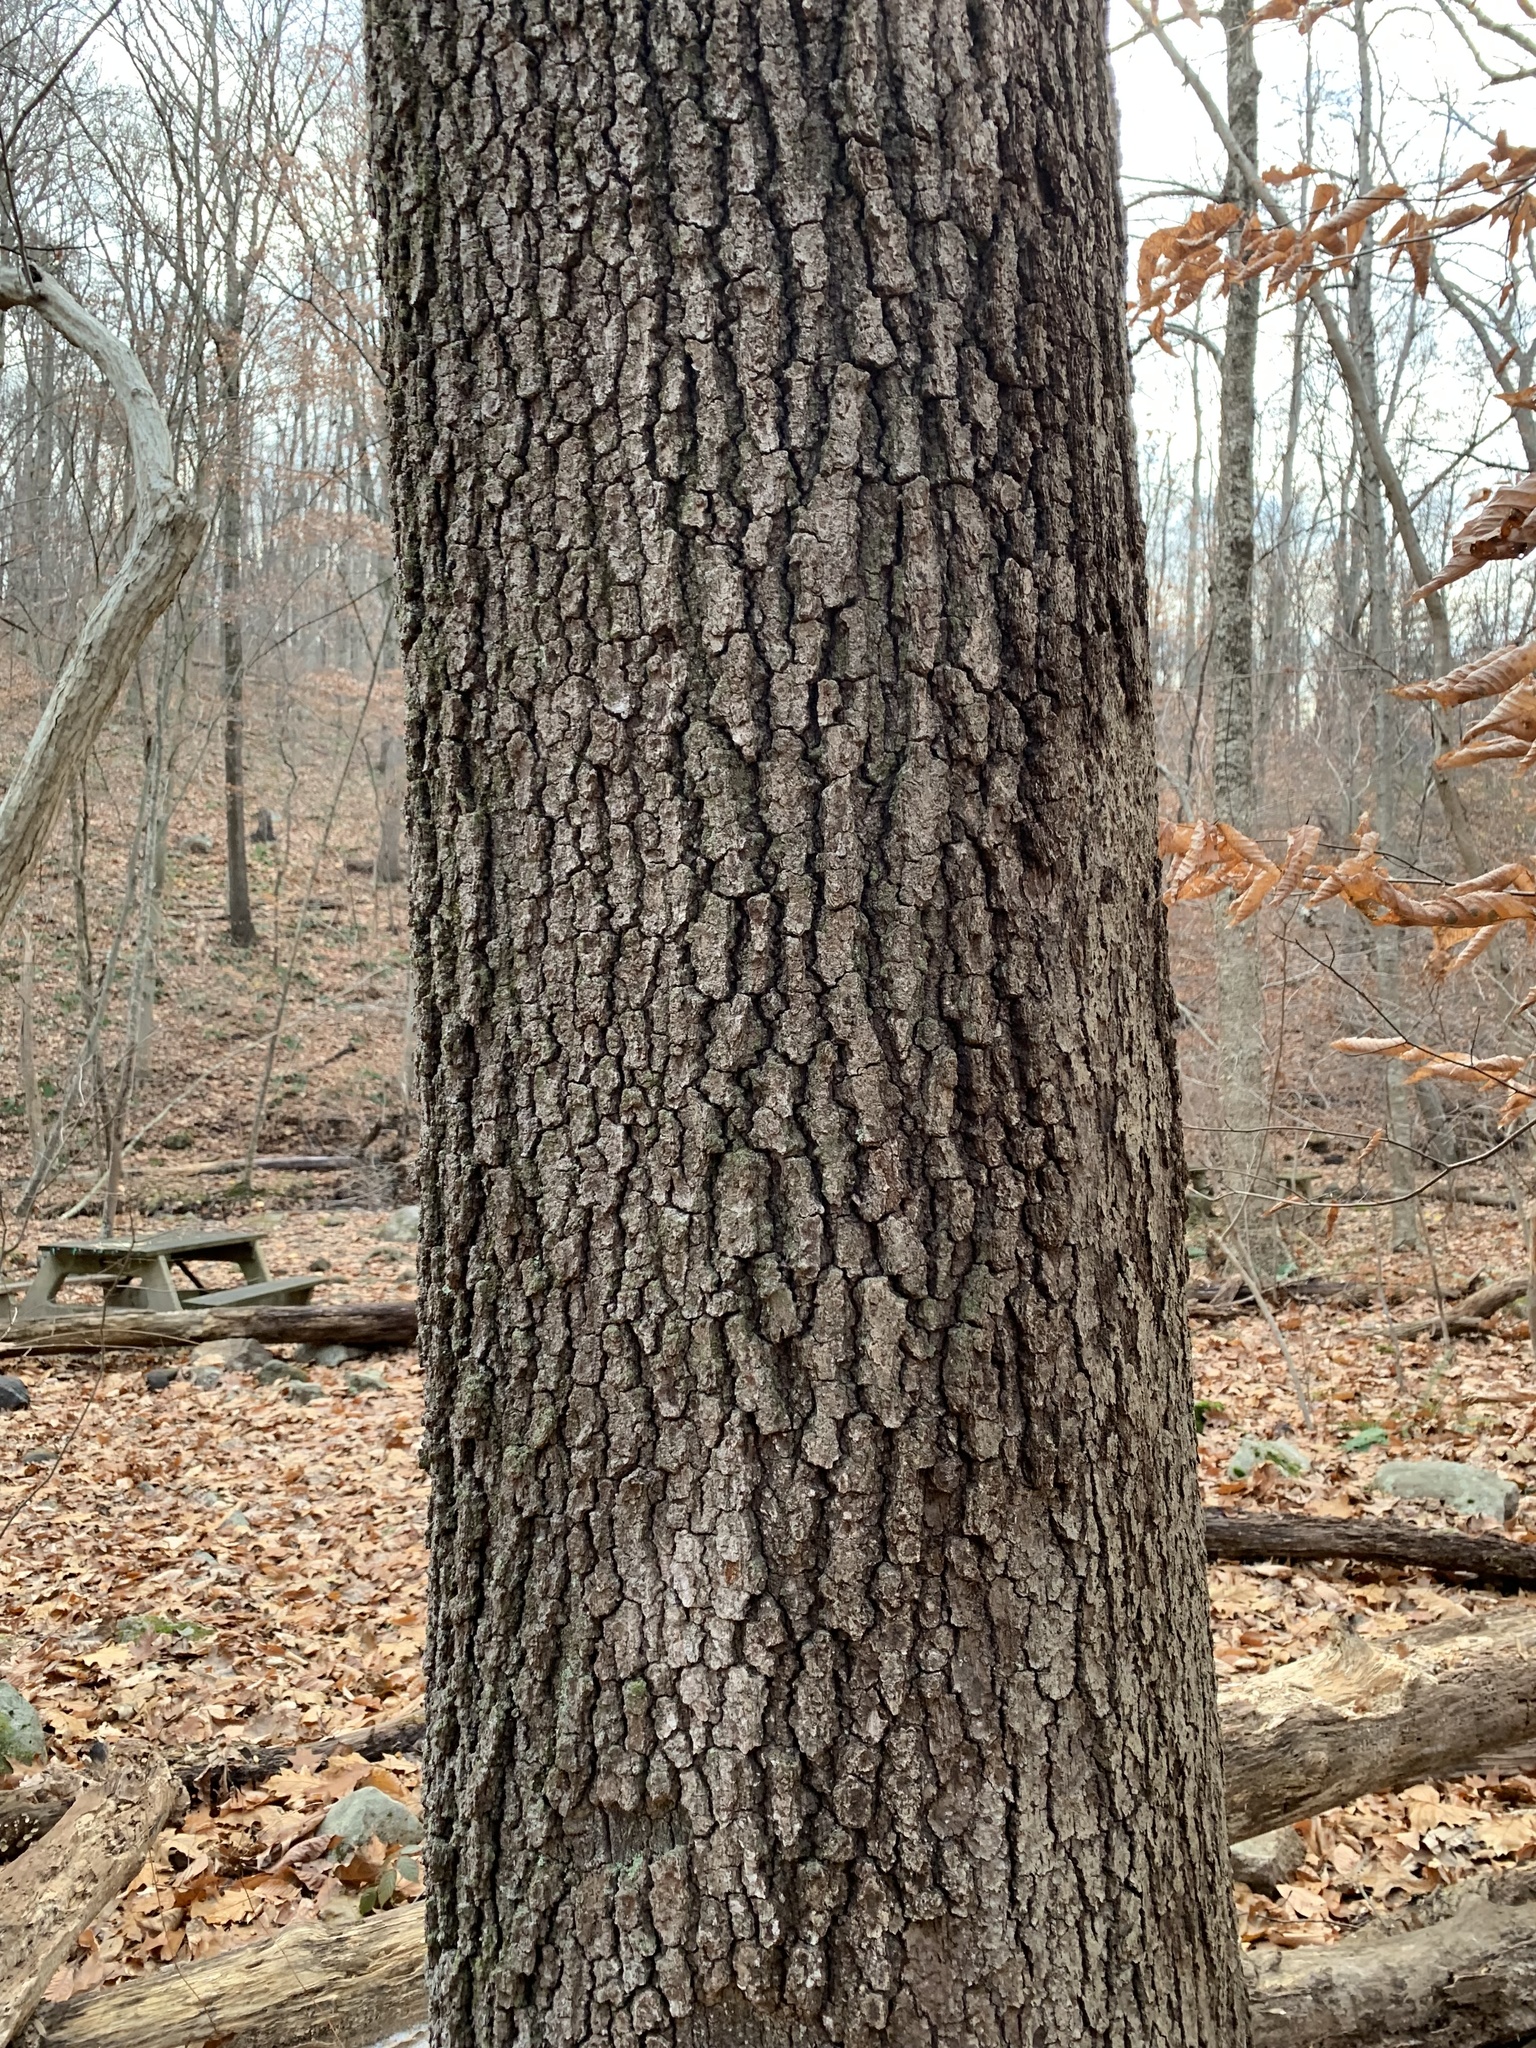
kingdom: Plantae
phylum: Tracheophyta
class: Magnoliopsida
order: Fagales
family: Fagaceae
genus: Quercus
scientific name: Quercus velutina
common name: Black oak
